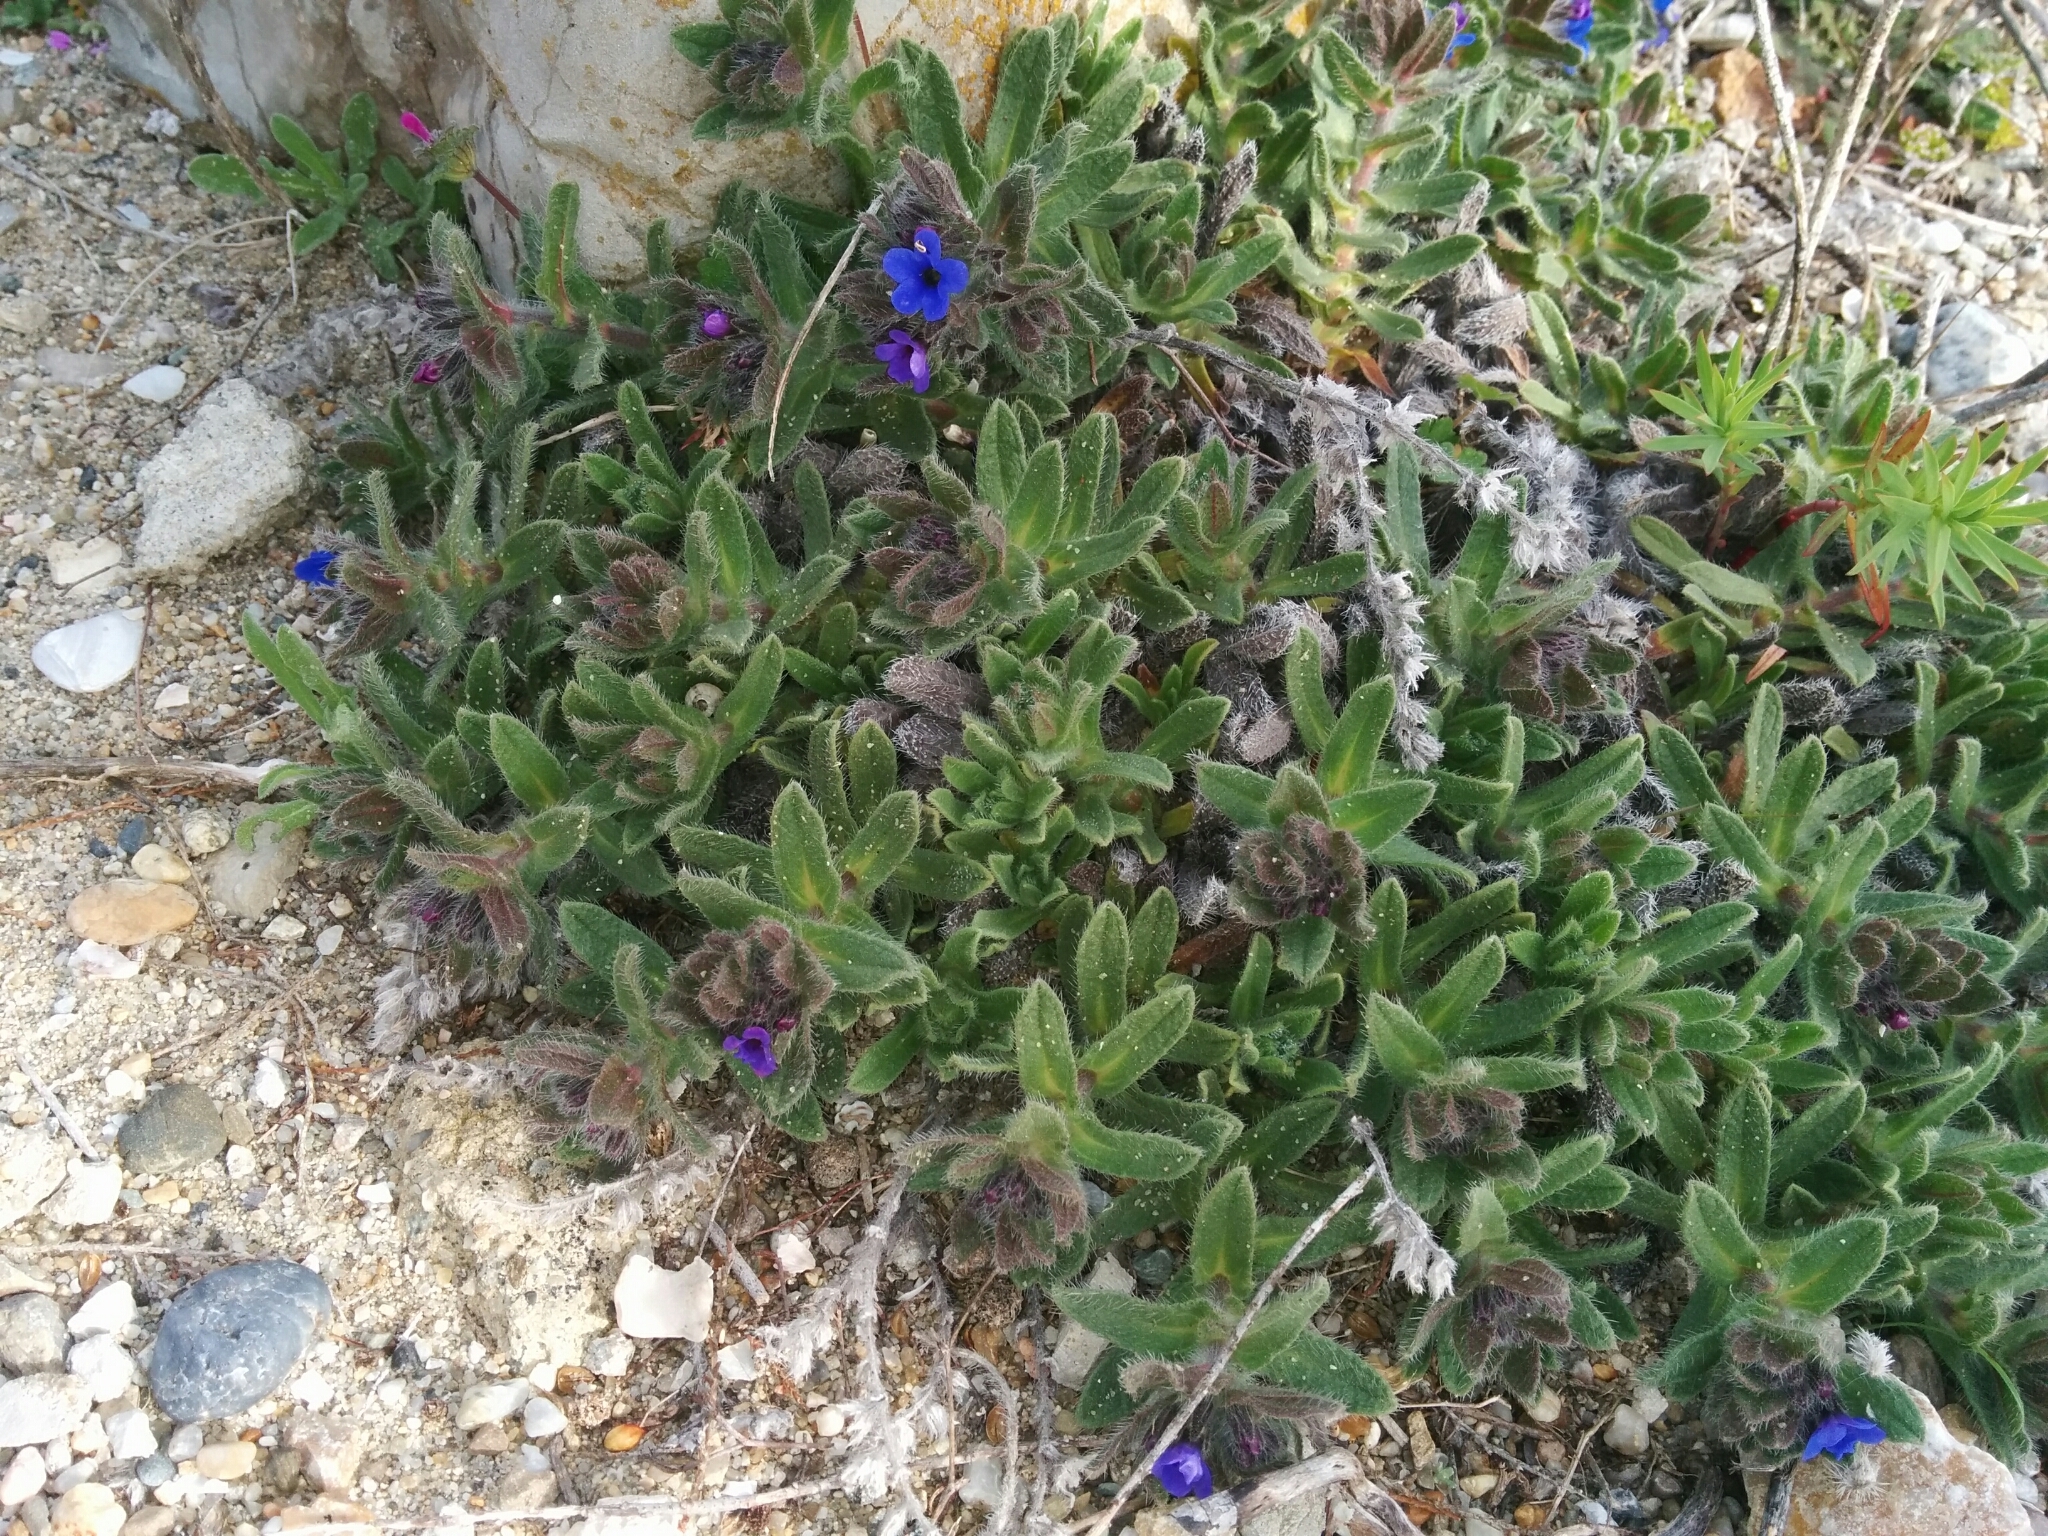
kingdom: Plantae
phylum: Tracheophyta
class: Magnoliopsida
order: Boraginales
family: Boraginaceae
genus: Alkanna
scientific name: Alkanna tinctoria
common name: Dyer's-alkanet
